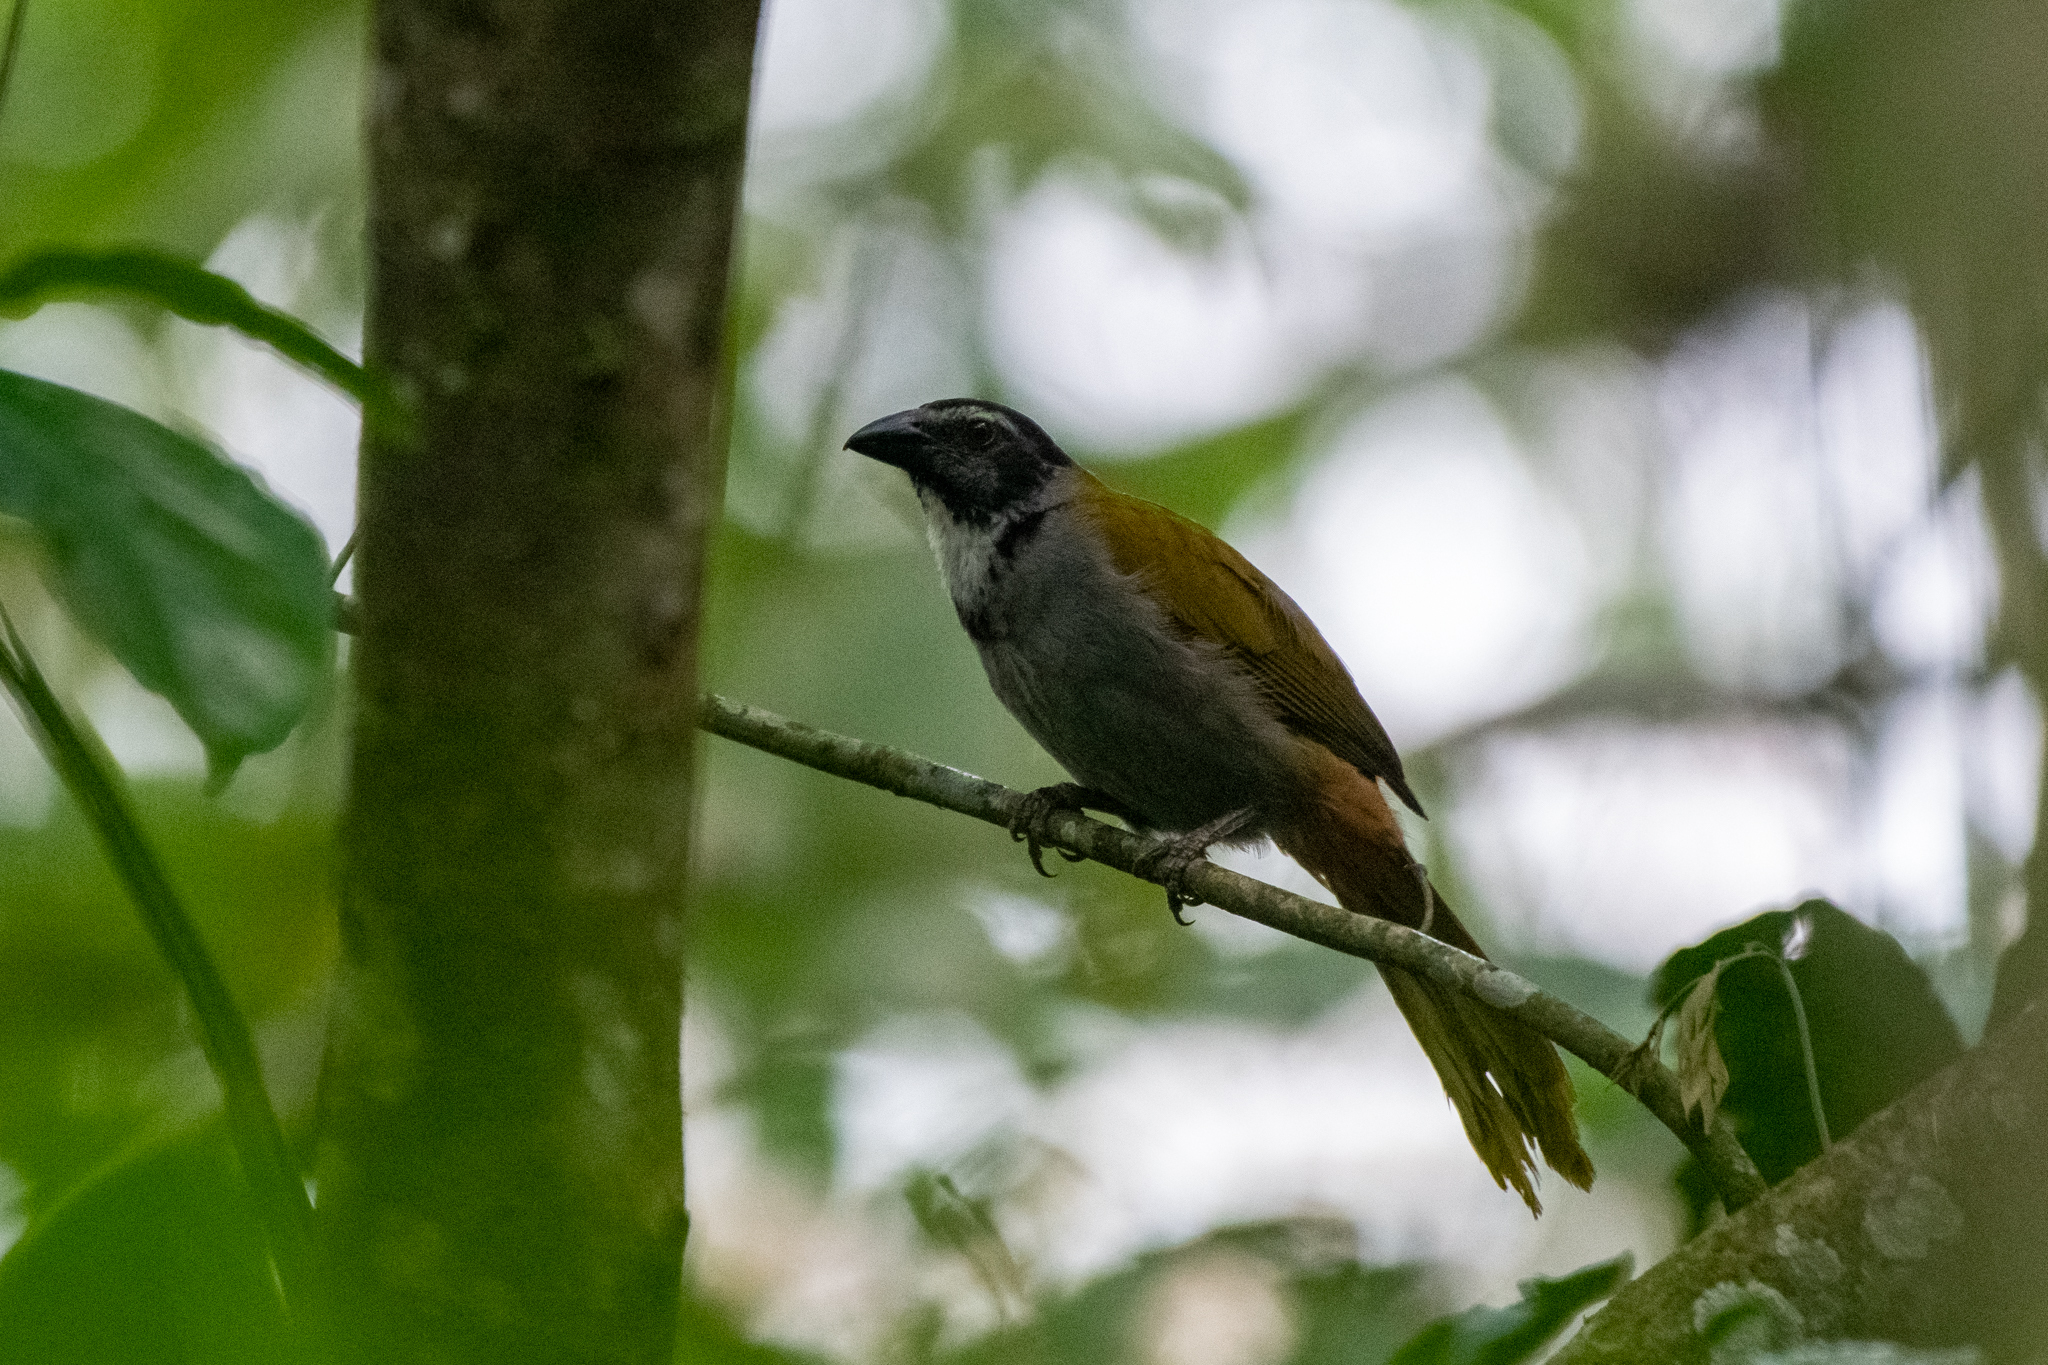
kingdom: Animalia
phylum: Chordata
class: Aves
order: Passeriformes
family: Thraupidae
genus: Saltator
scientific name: Saltator atriceps
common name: Black-headed saltator
